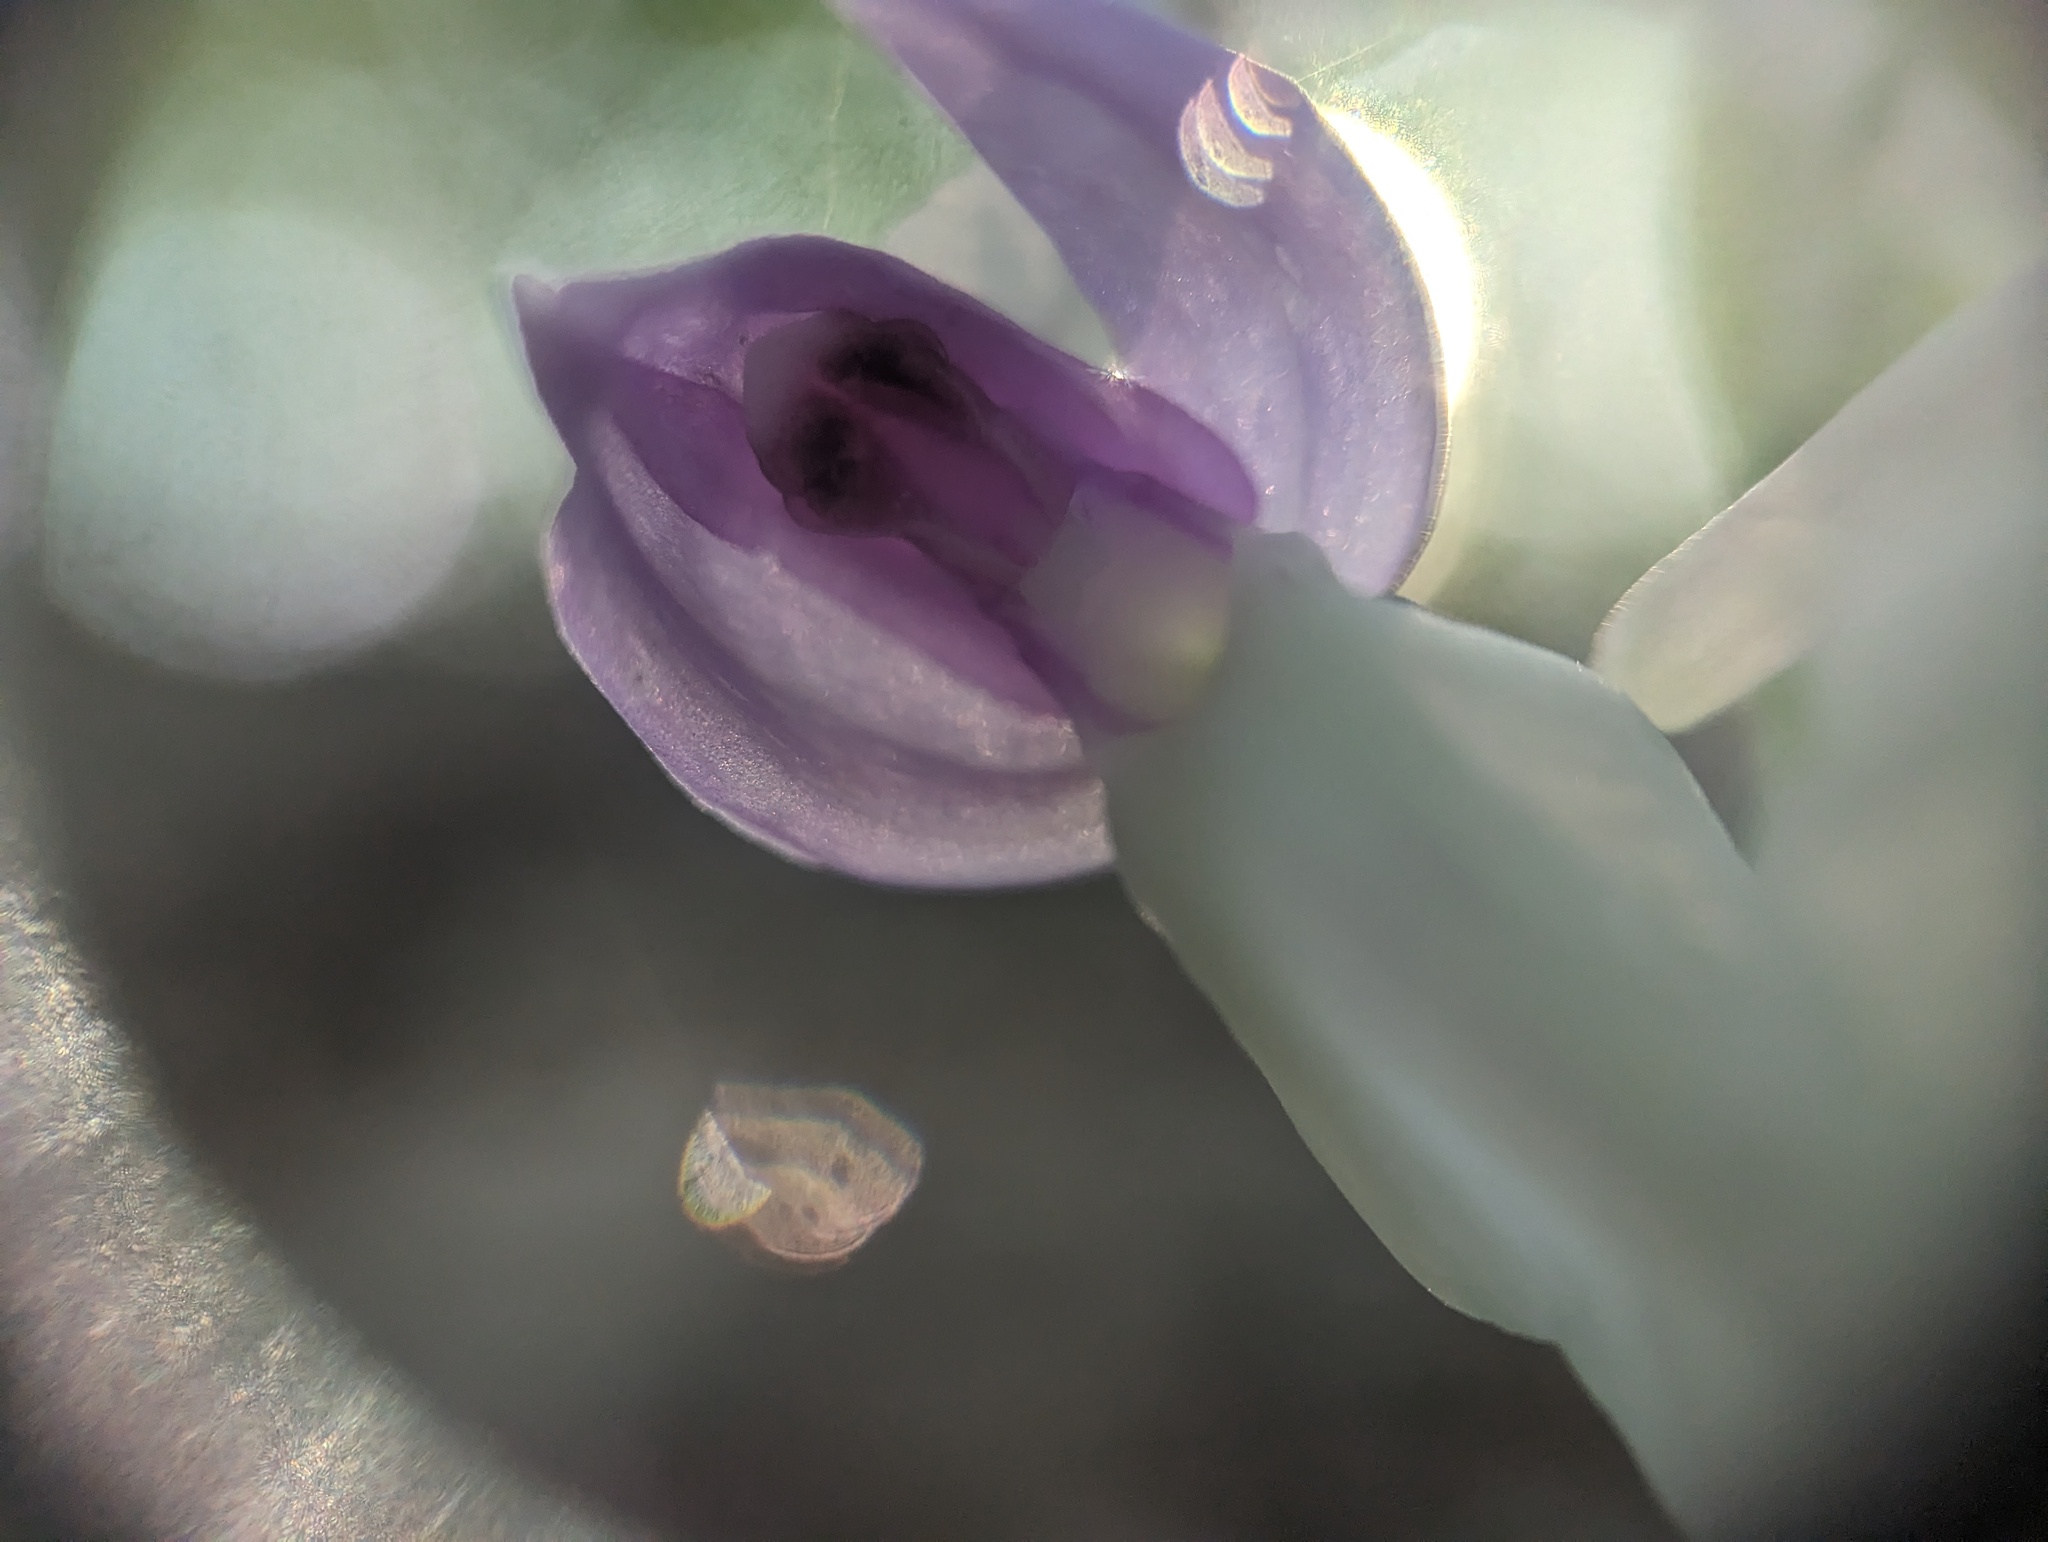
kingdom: Plantae
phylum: Tracheophyta
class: Liliopsida
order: Asparagales
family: Orchidaceae
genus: Galearis
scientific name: Galearis spectabilis
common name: Purple-hooded orchis
